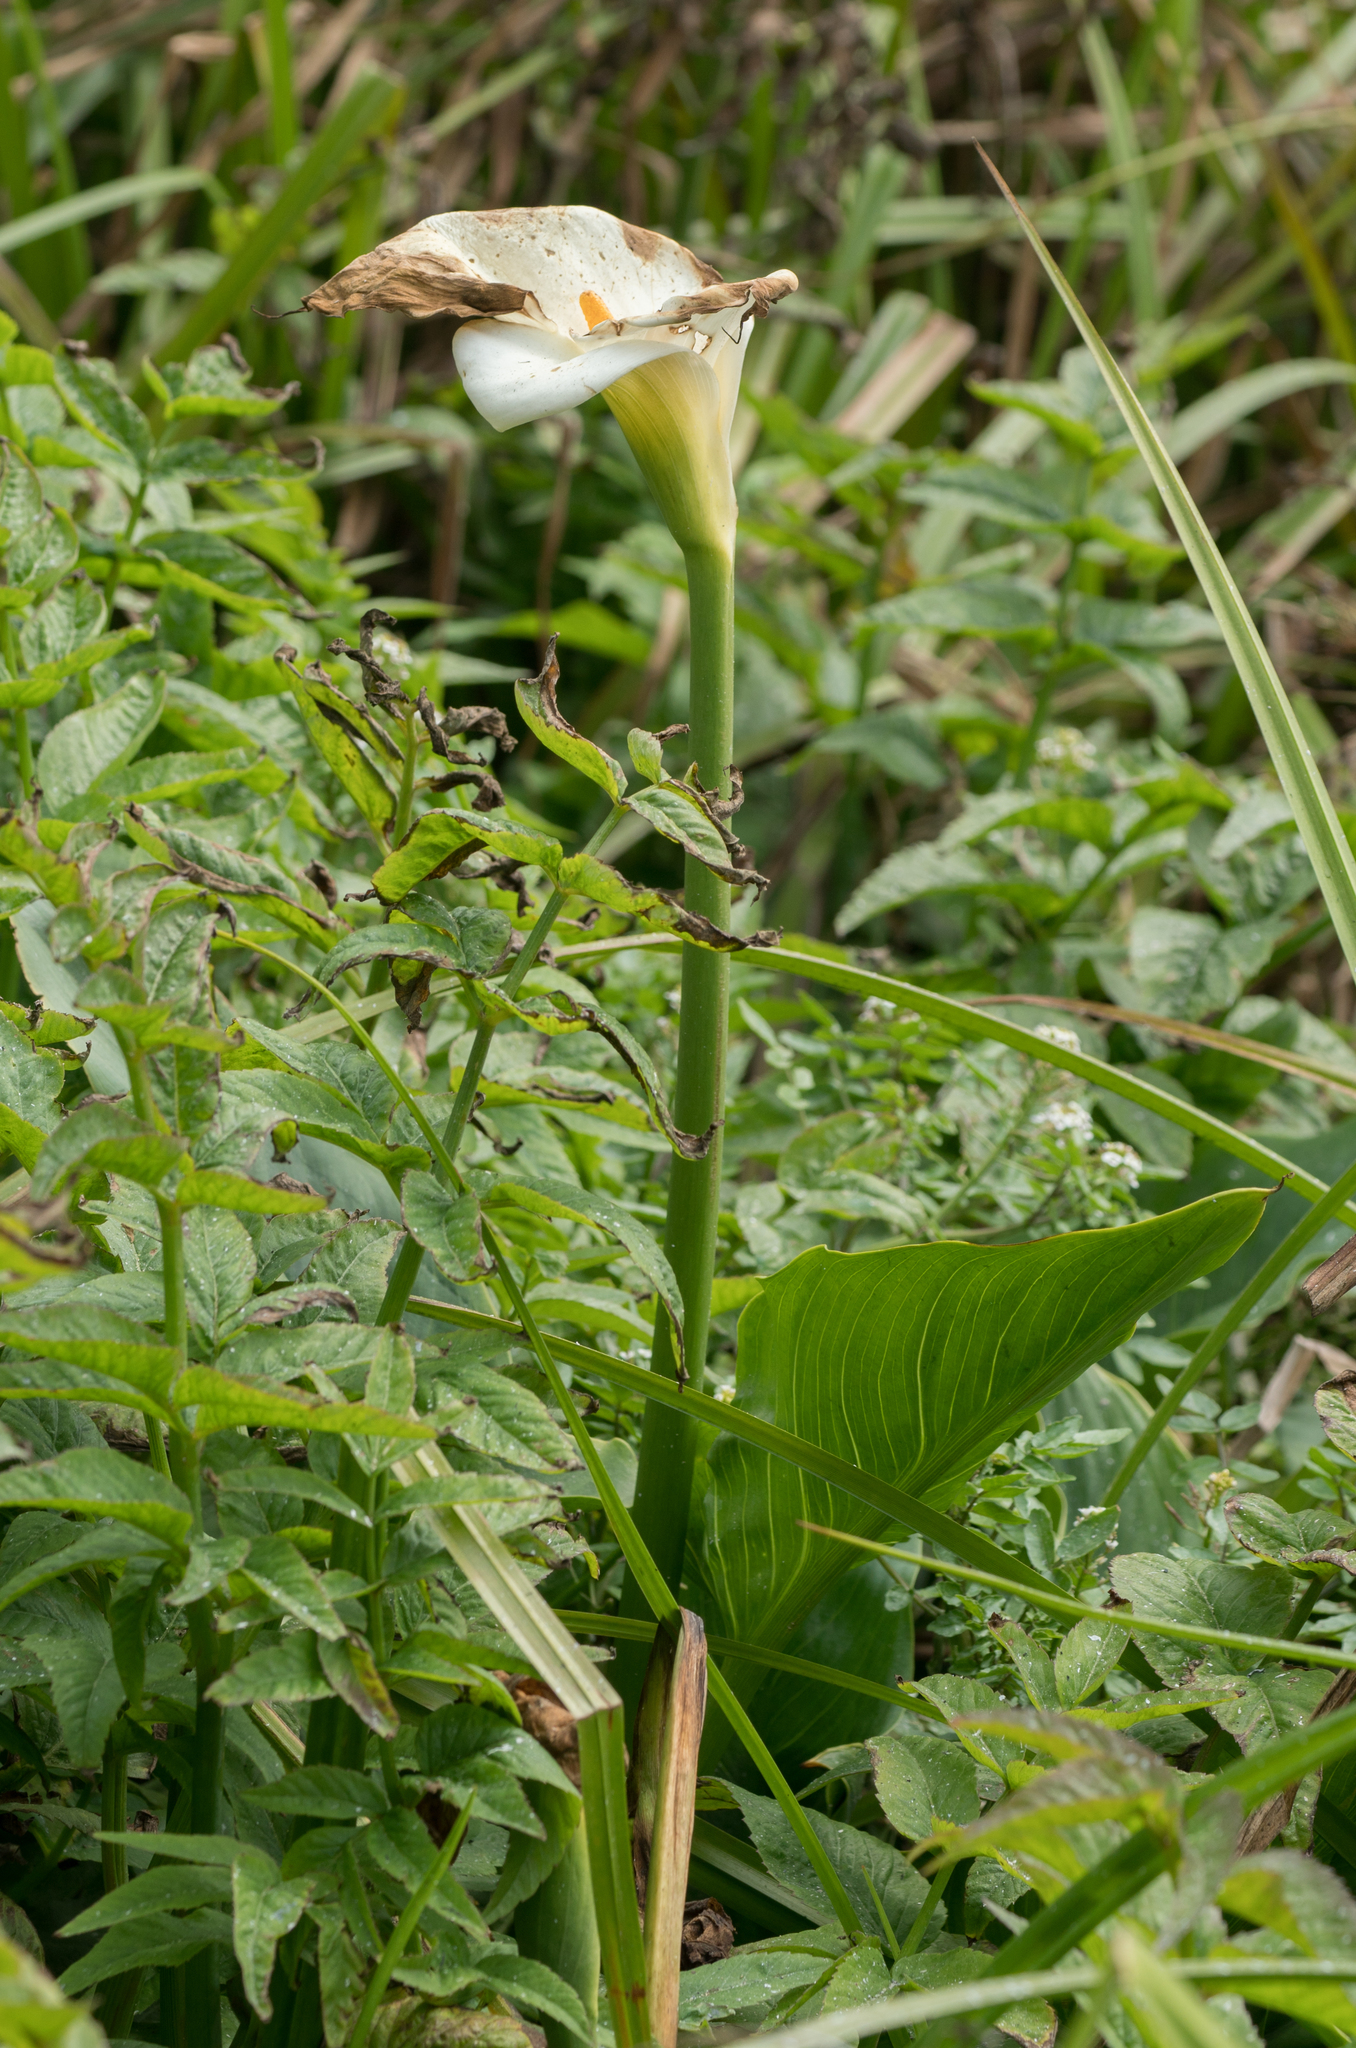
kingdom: Plantae
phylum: Tracheophyta
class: Liliopsida
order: Alismatales
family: Araceae
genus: Zantedeschia
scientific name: Zantedeschia aethiopica
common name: Altar-lily
